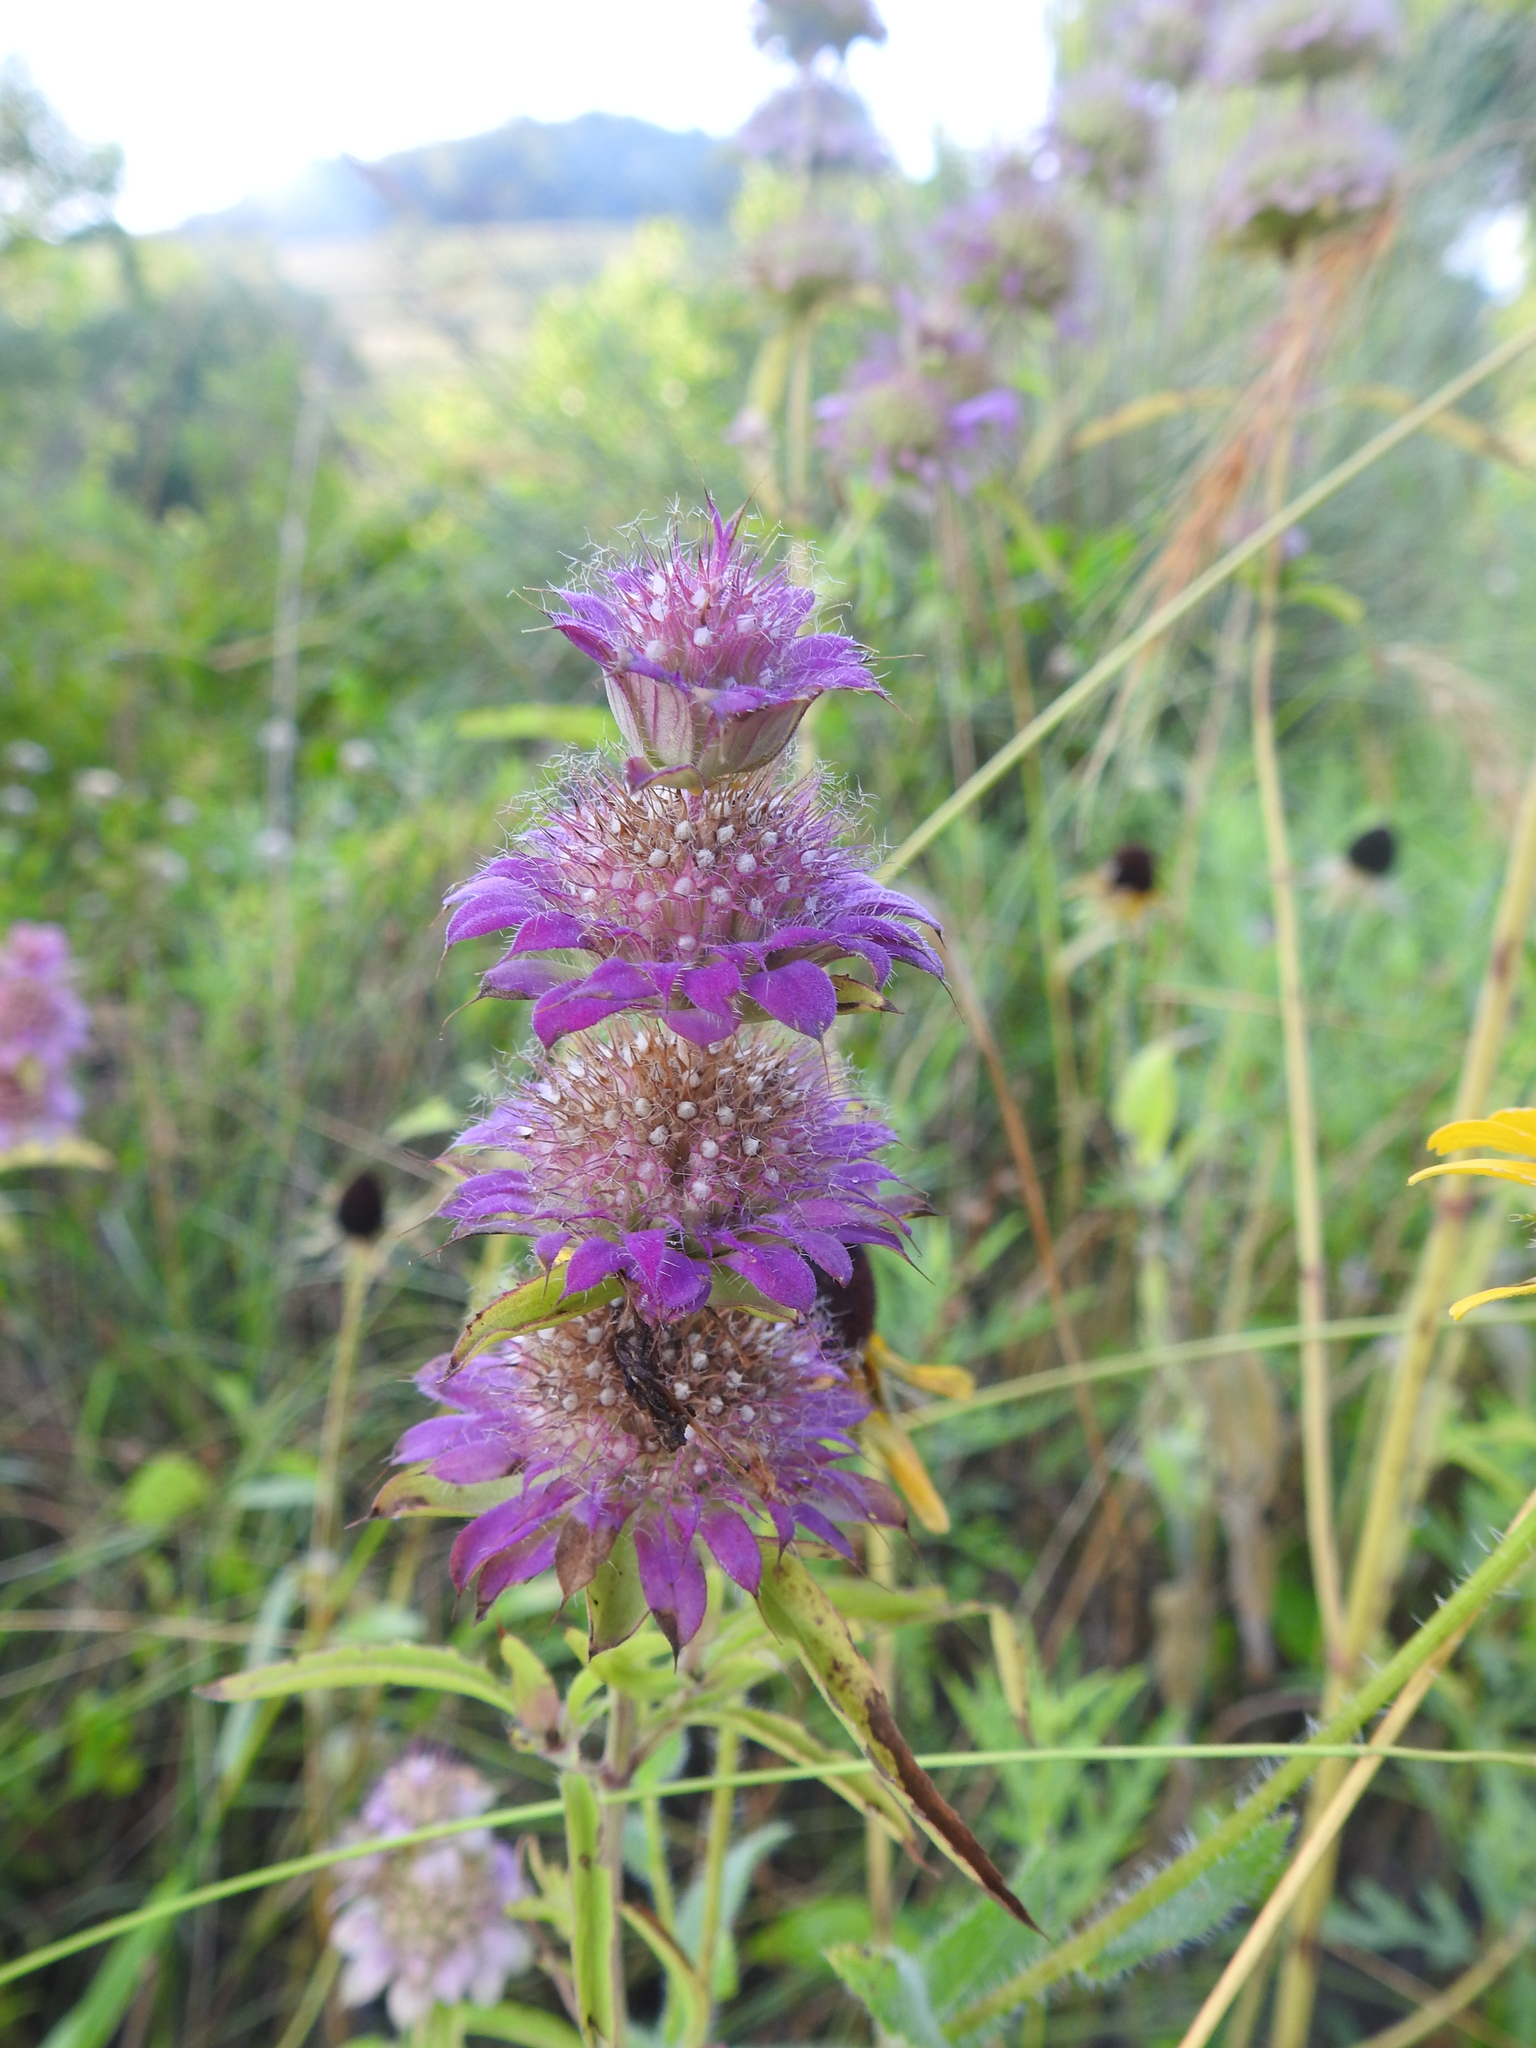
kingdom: Plantae
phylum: Tracheophyta
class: Magnoliopsida
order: Lamiales
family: Lamiaceae
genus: Monarda
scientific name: Monarda citriodora
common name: Lemon beebalm
